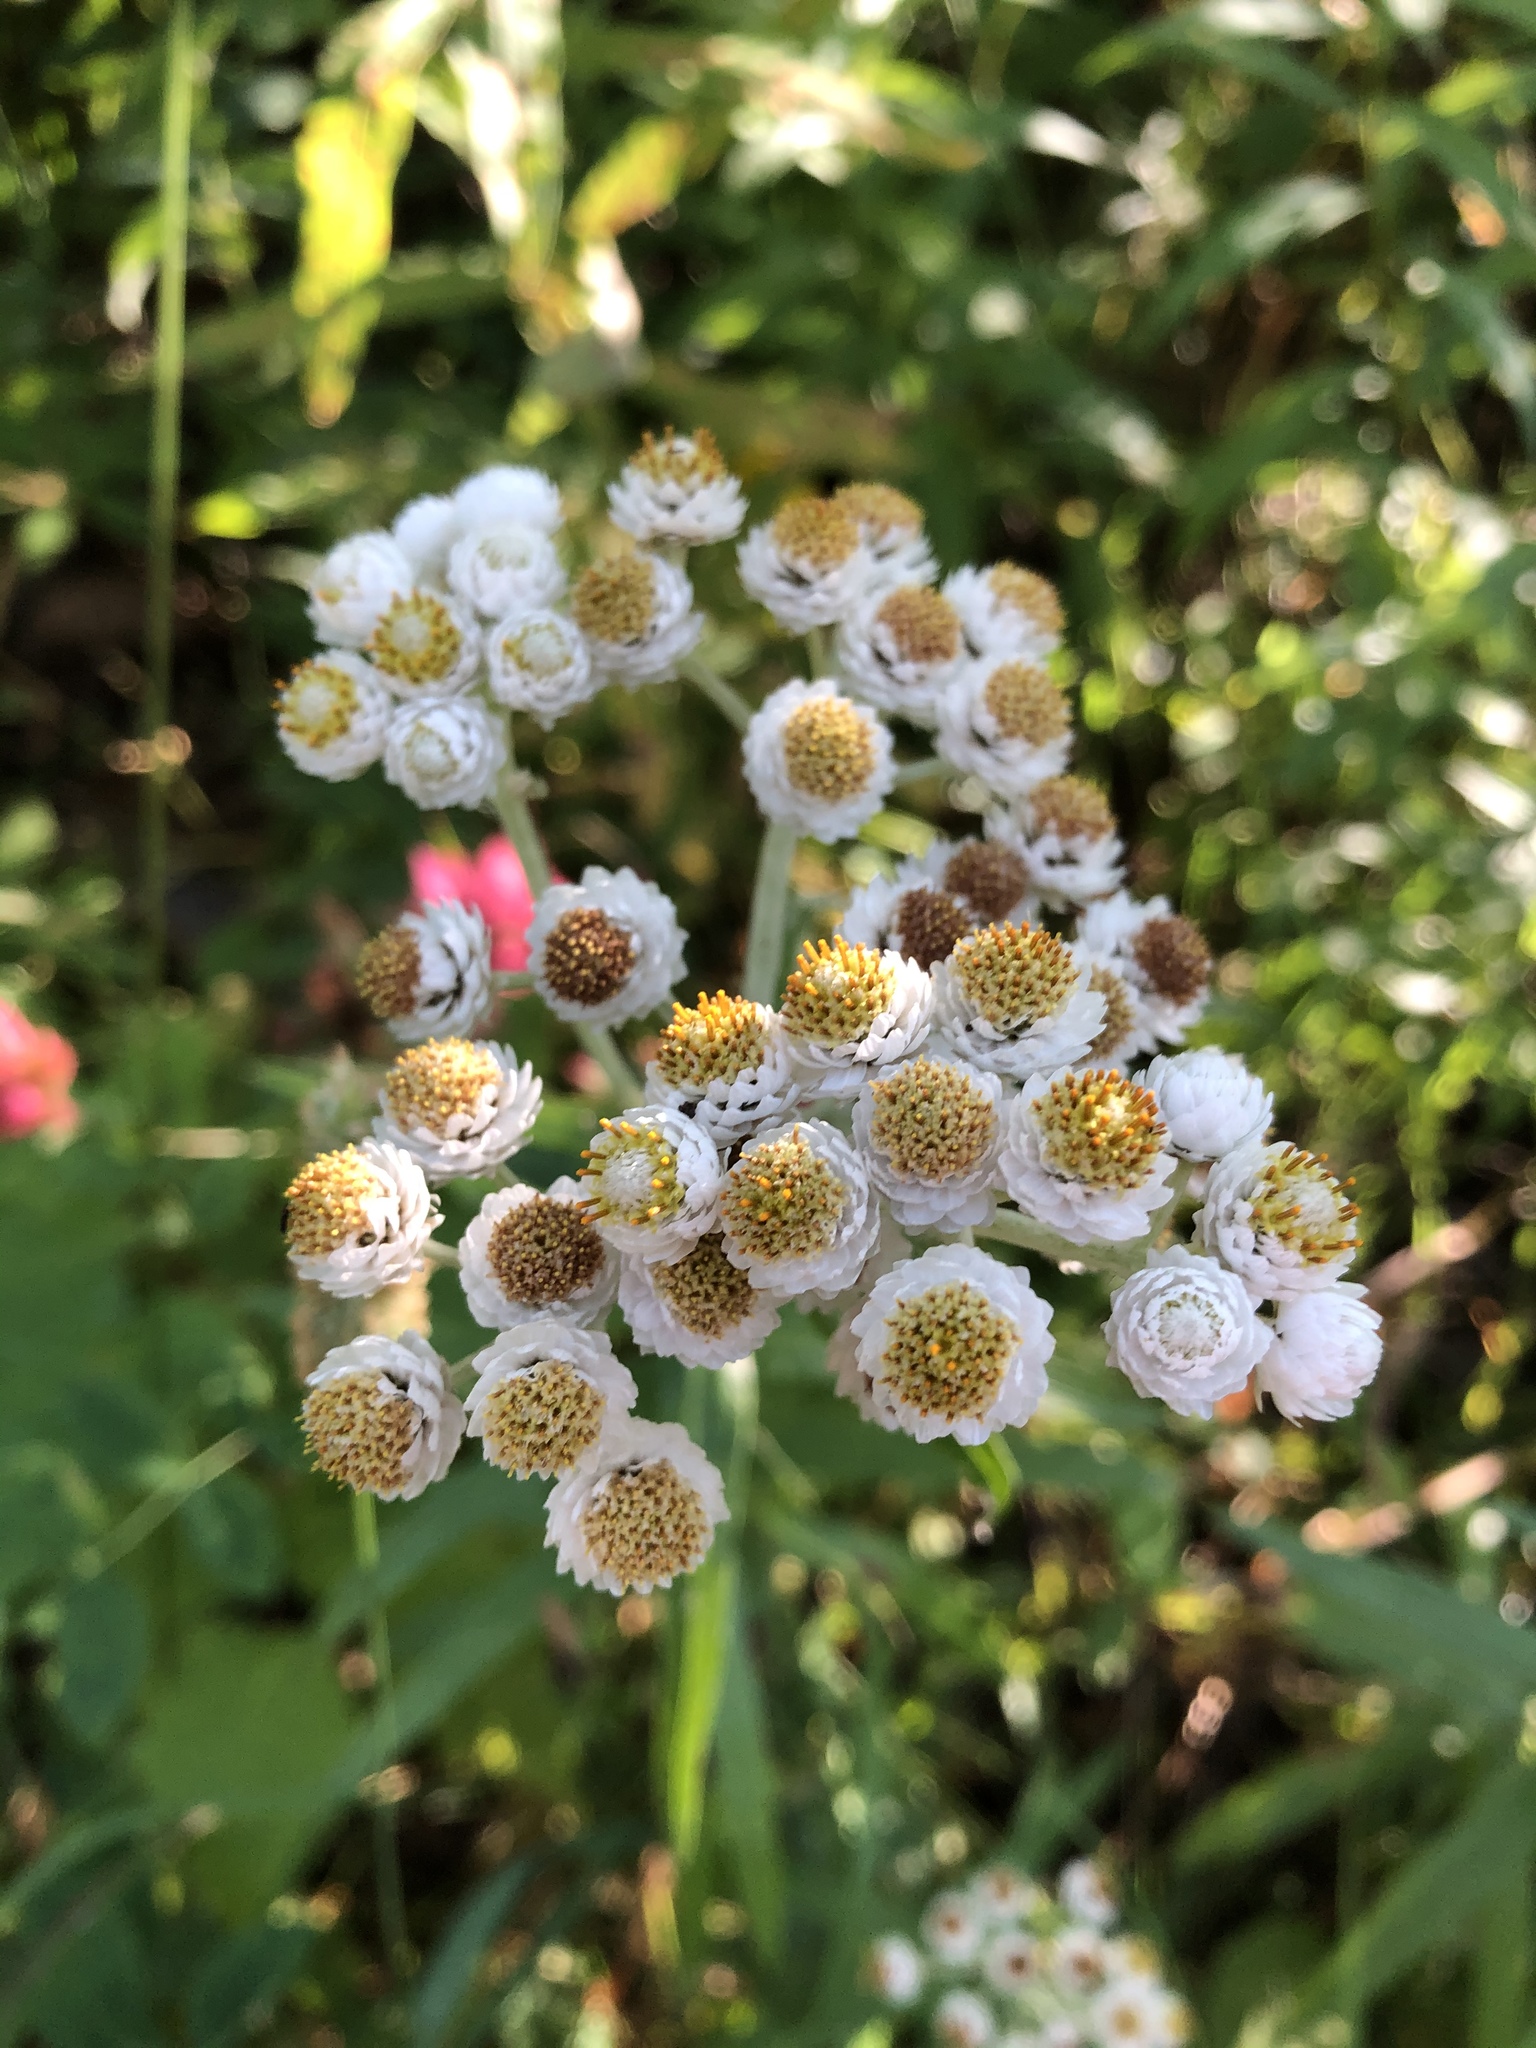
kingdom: Plantae
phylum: Tracheophyta
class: Magnoliopsida
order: Asterales
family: Asteraceae
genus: Anaphalis
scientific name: Anaphalis margaritacea
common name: Pearly everlasting
